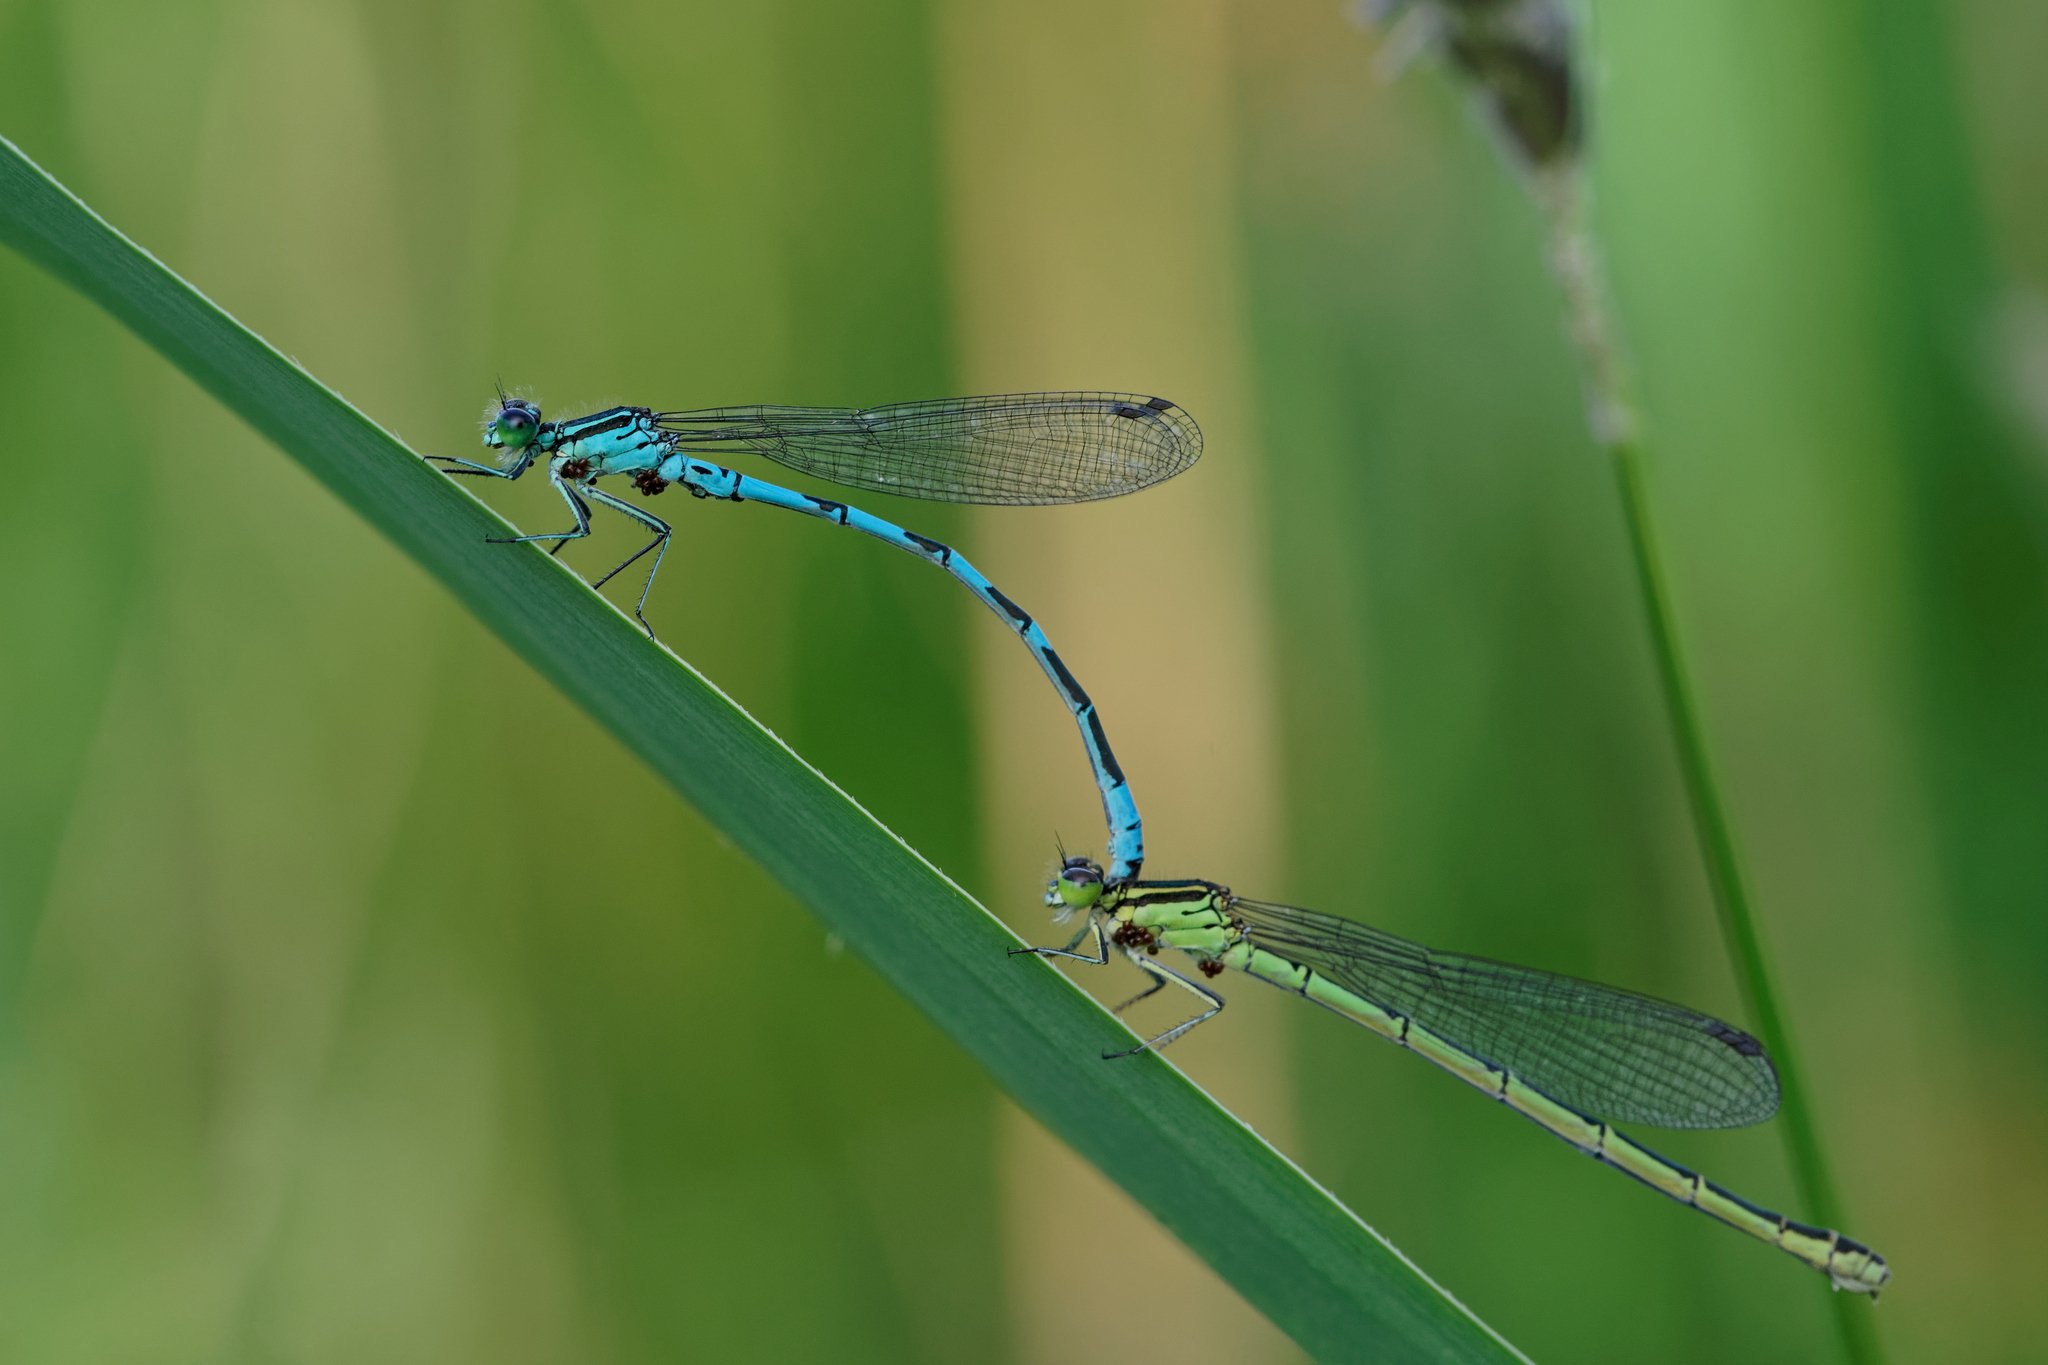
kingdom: Animalia
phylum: Arthropoda
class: Insecta
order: Odonata
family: Coenagrionidae
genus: Coenagrion
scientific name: Coenagrion hastulatum
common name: Spearhead bluet
